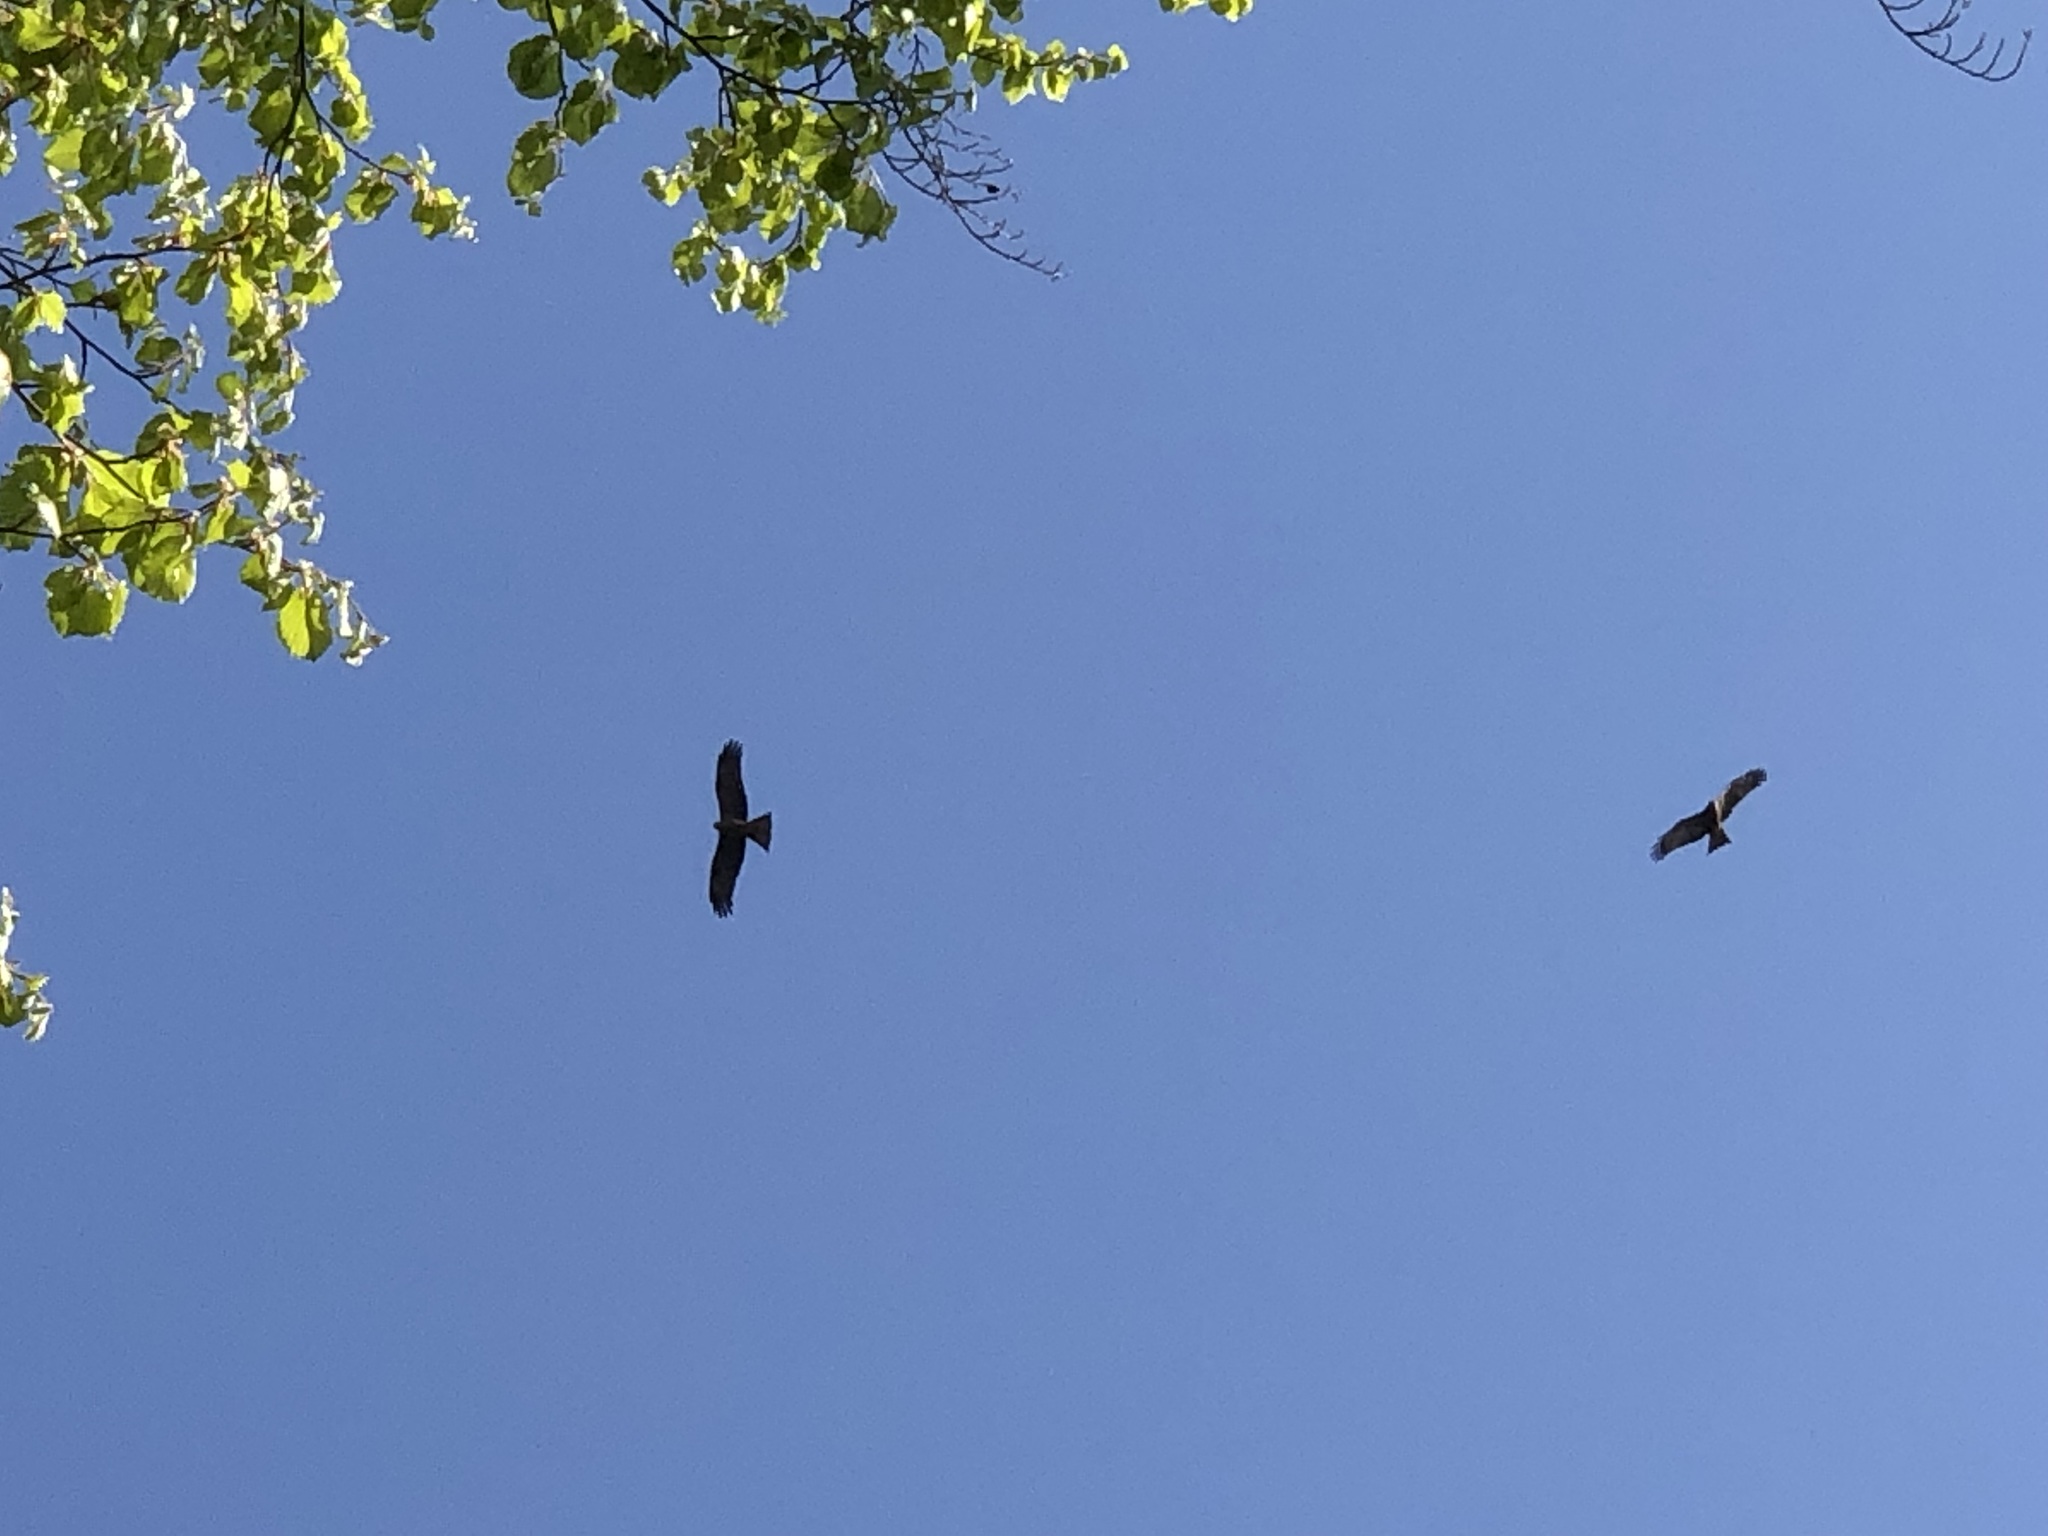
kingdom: Animalia
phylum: Chordata
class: Aves
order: Accipitriformes
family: Accipitridae
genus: Milvus
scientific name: Milvus migrans
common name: Black kite
